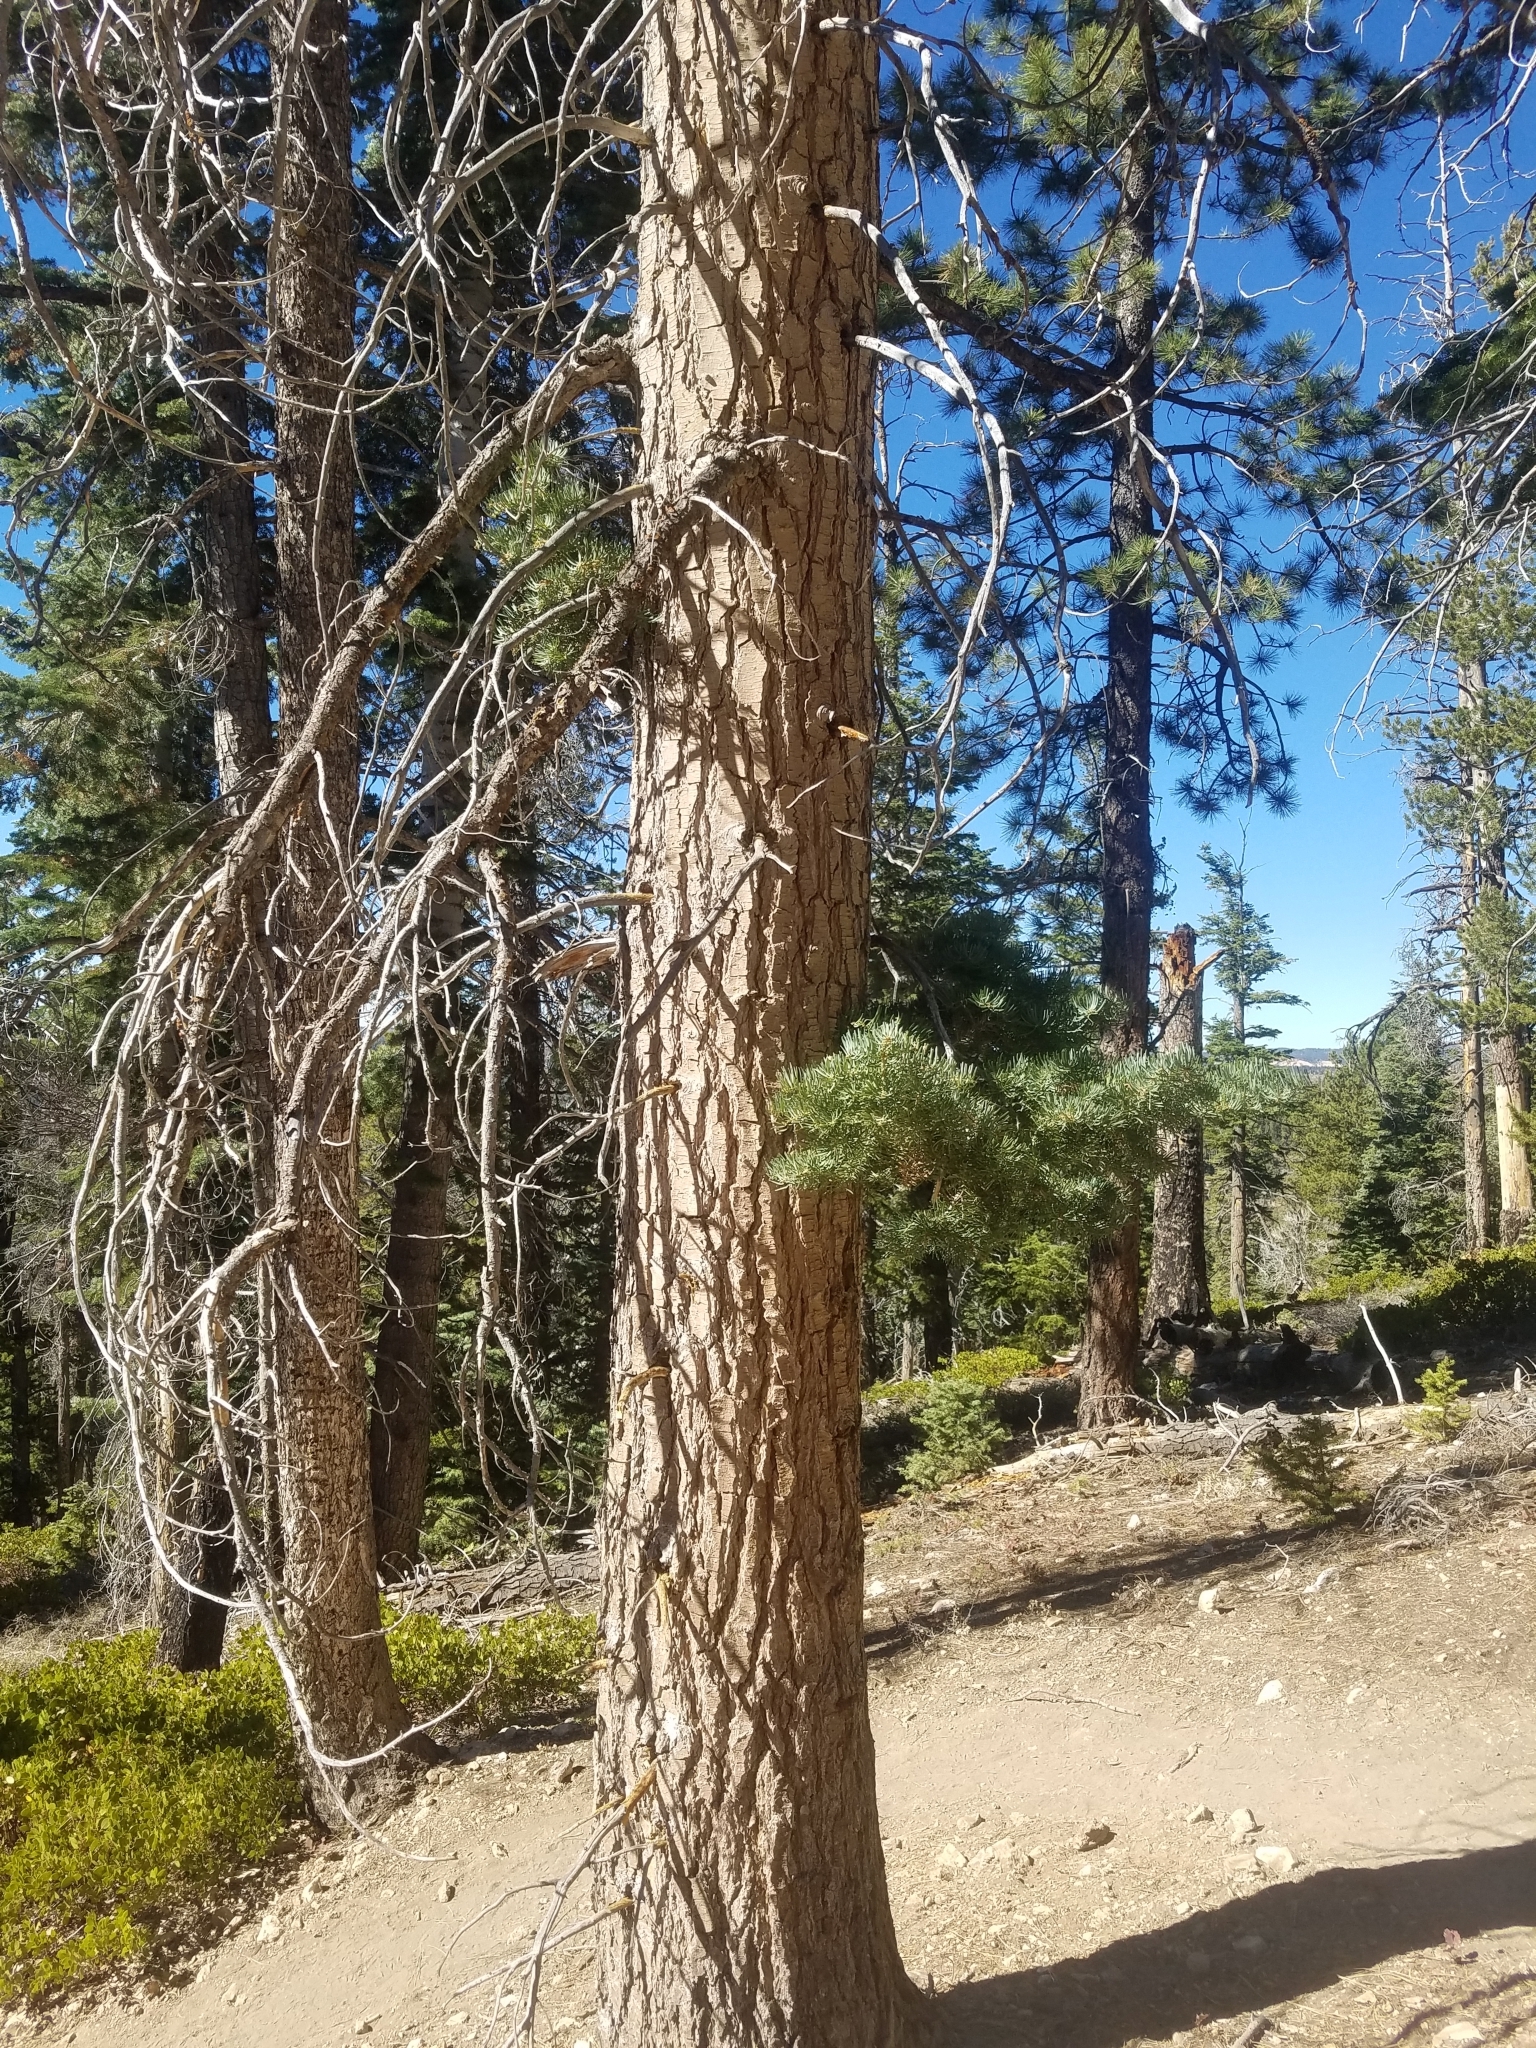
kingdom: Plantae
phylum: Tracheophyta
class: Pinopsida
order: Pinales
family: Pinaceae
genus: Abies
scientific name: Abies concolor
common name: Colorado fir
